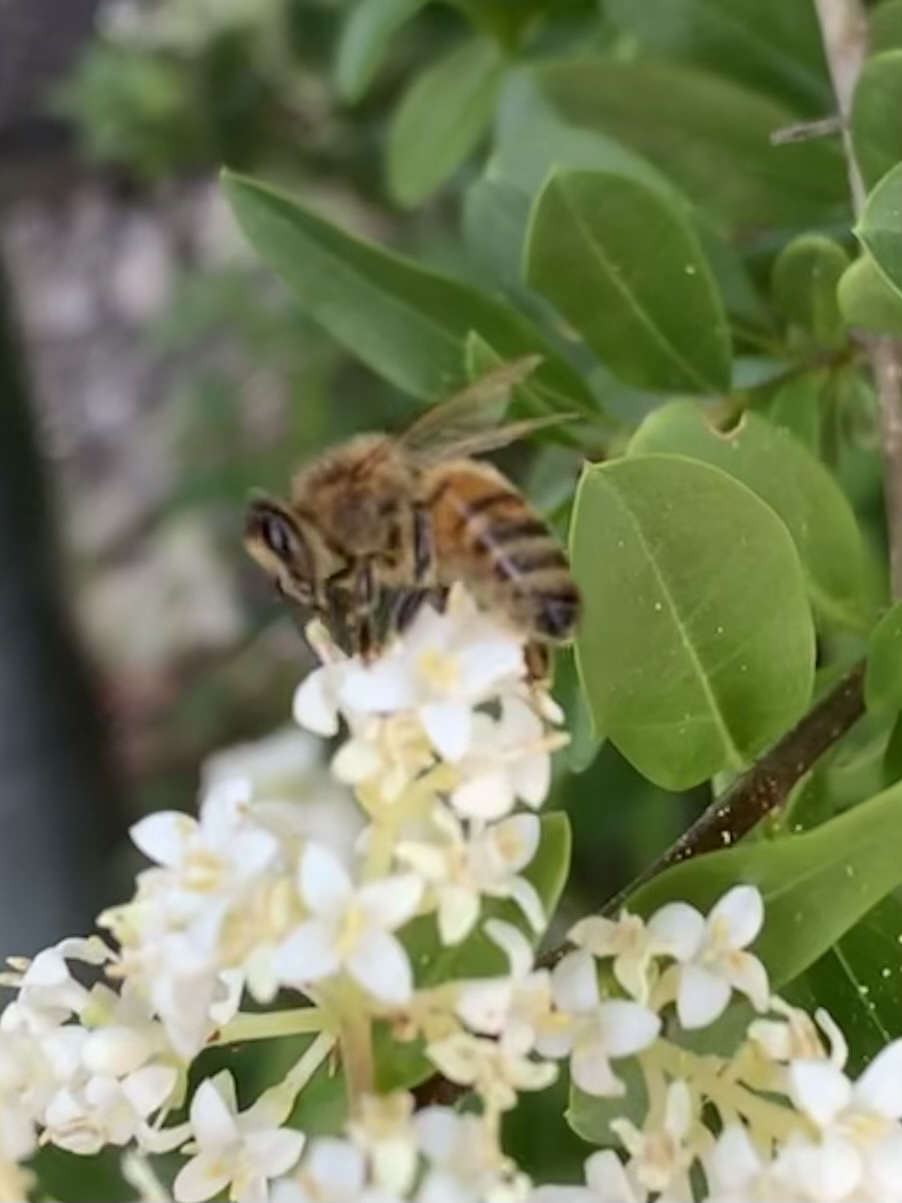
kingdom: Animalia
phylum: Arthropoda
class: Insecta
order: Hymenoptera
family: Apidae
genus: Apis
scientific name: Apis mellifera
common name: Honey bee
